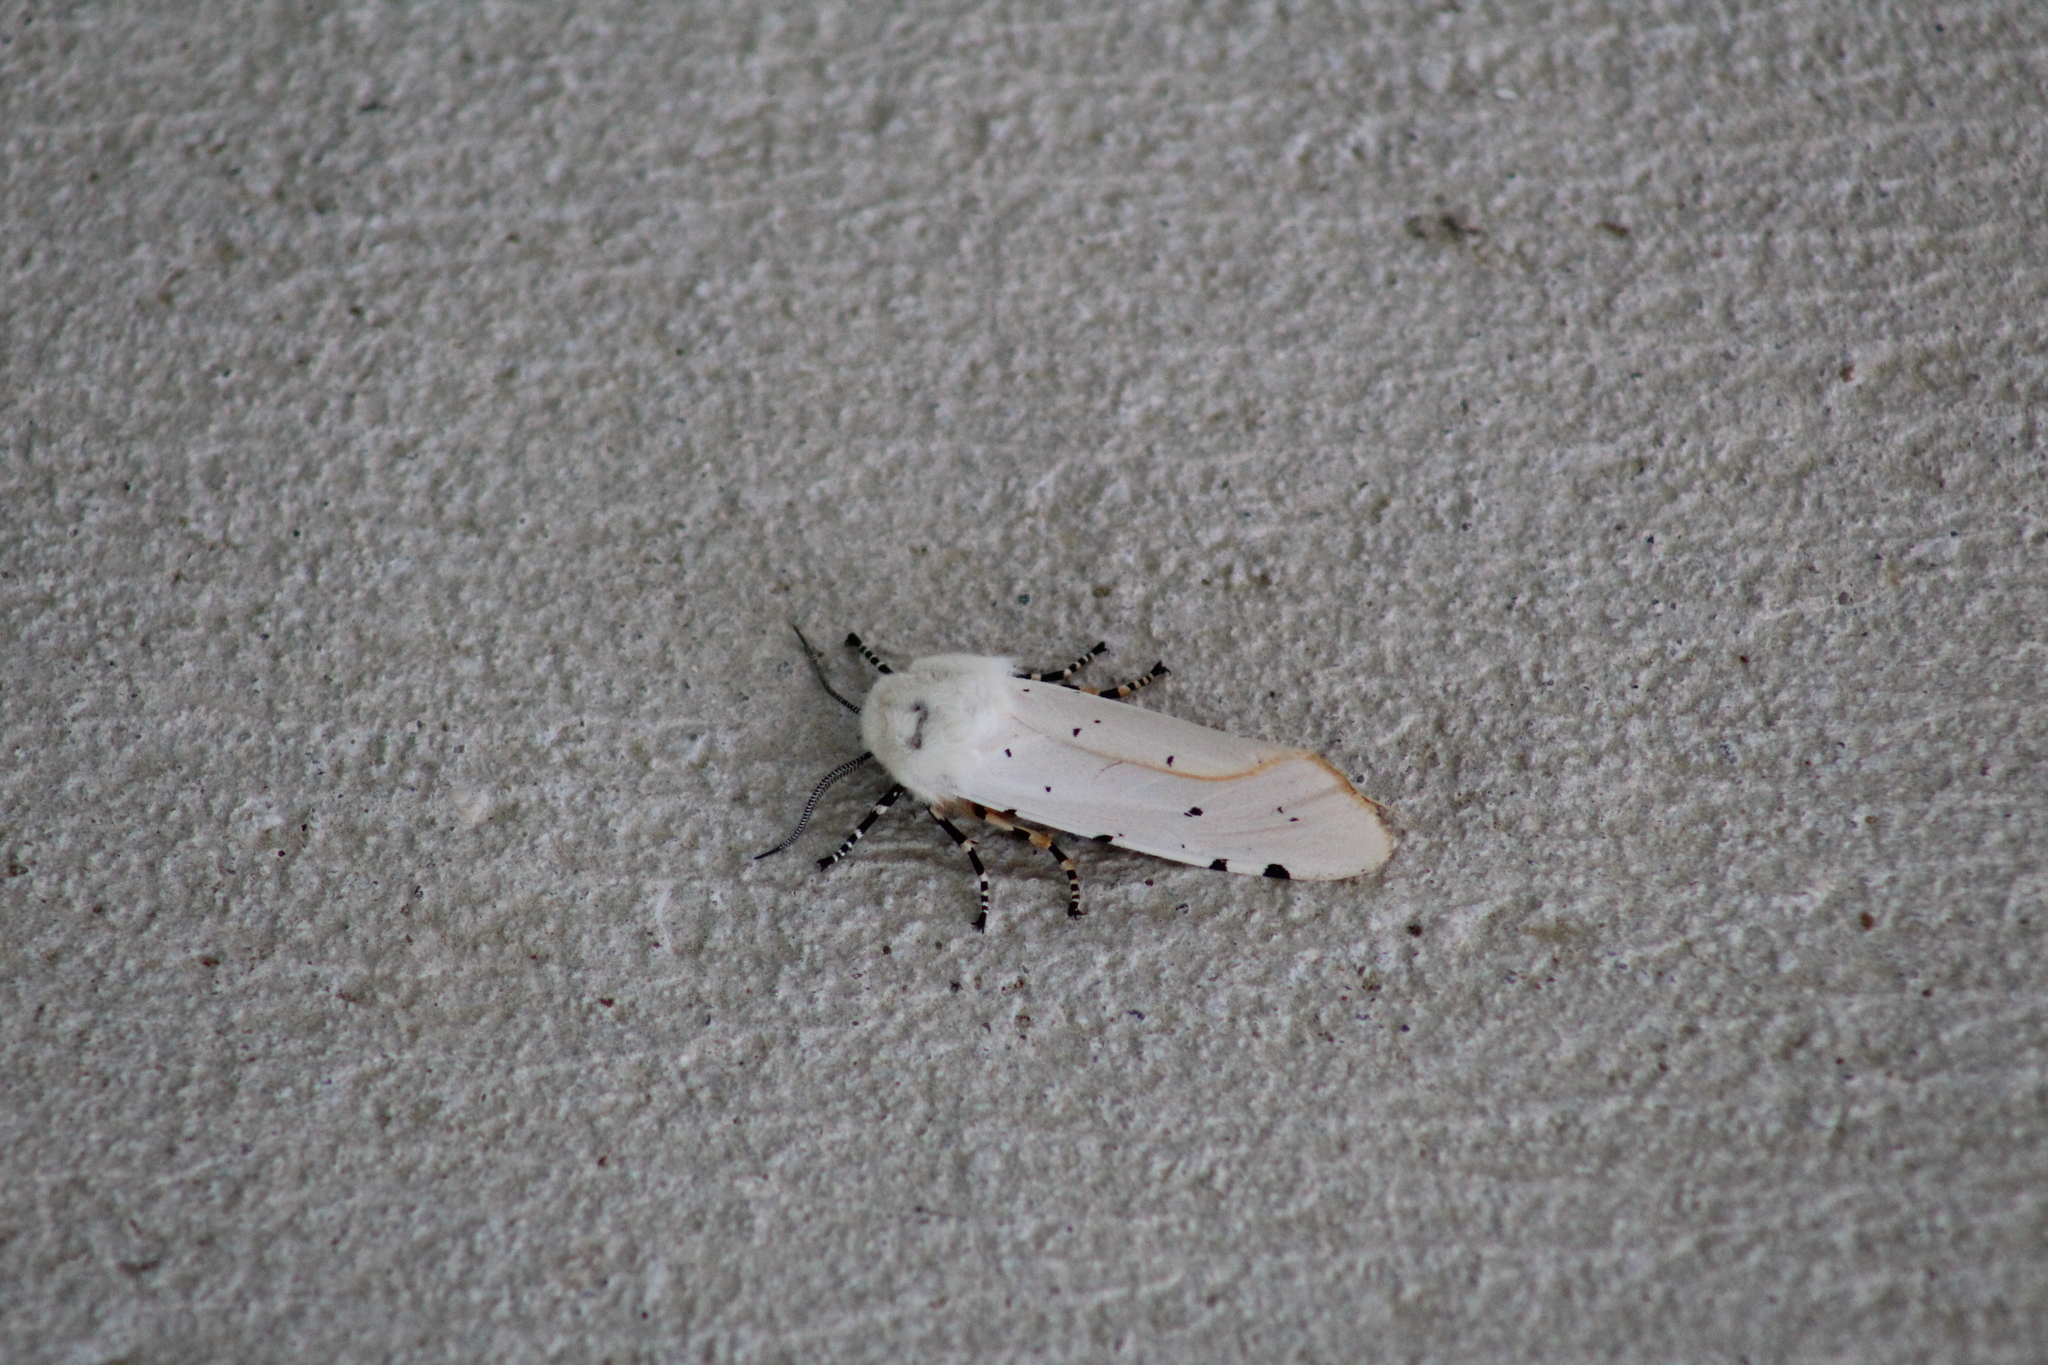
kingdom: Animalia
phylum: Arthropoda
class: Insecta
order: Lepidoptera
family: Erebidae
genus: Estigmene
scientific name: Estigmene acrea
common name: Salt marsh moth
